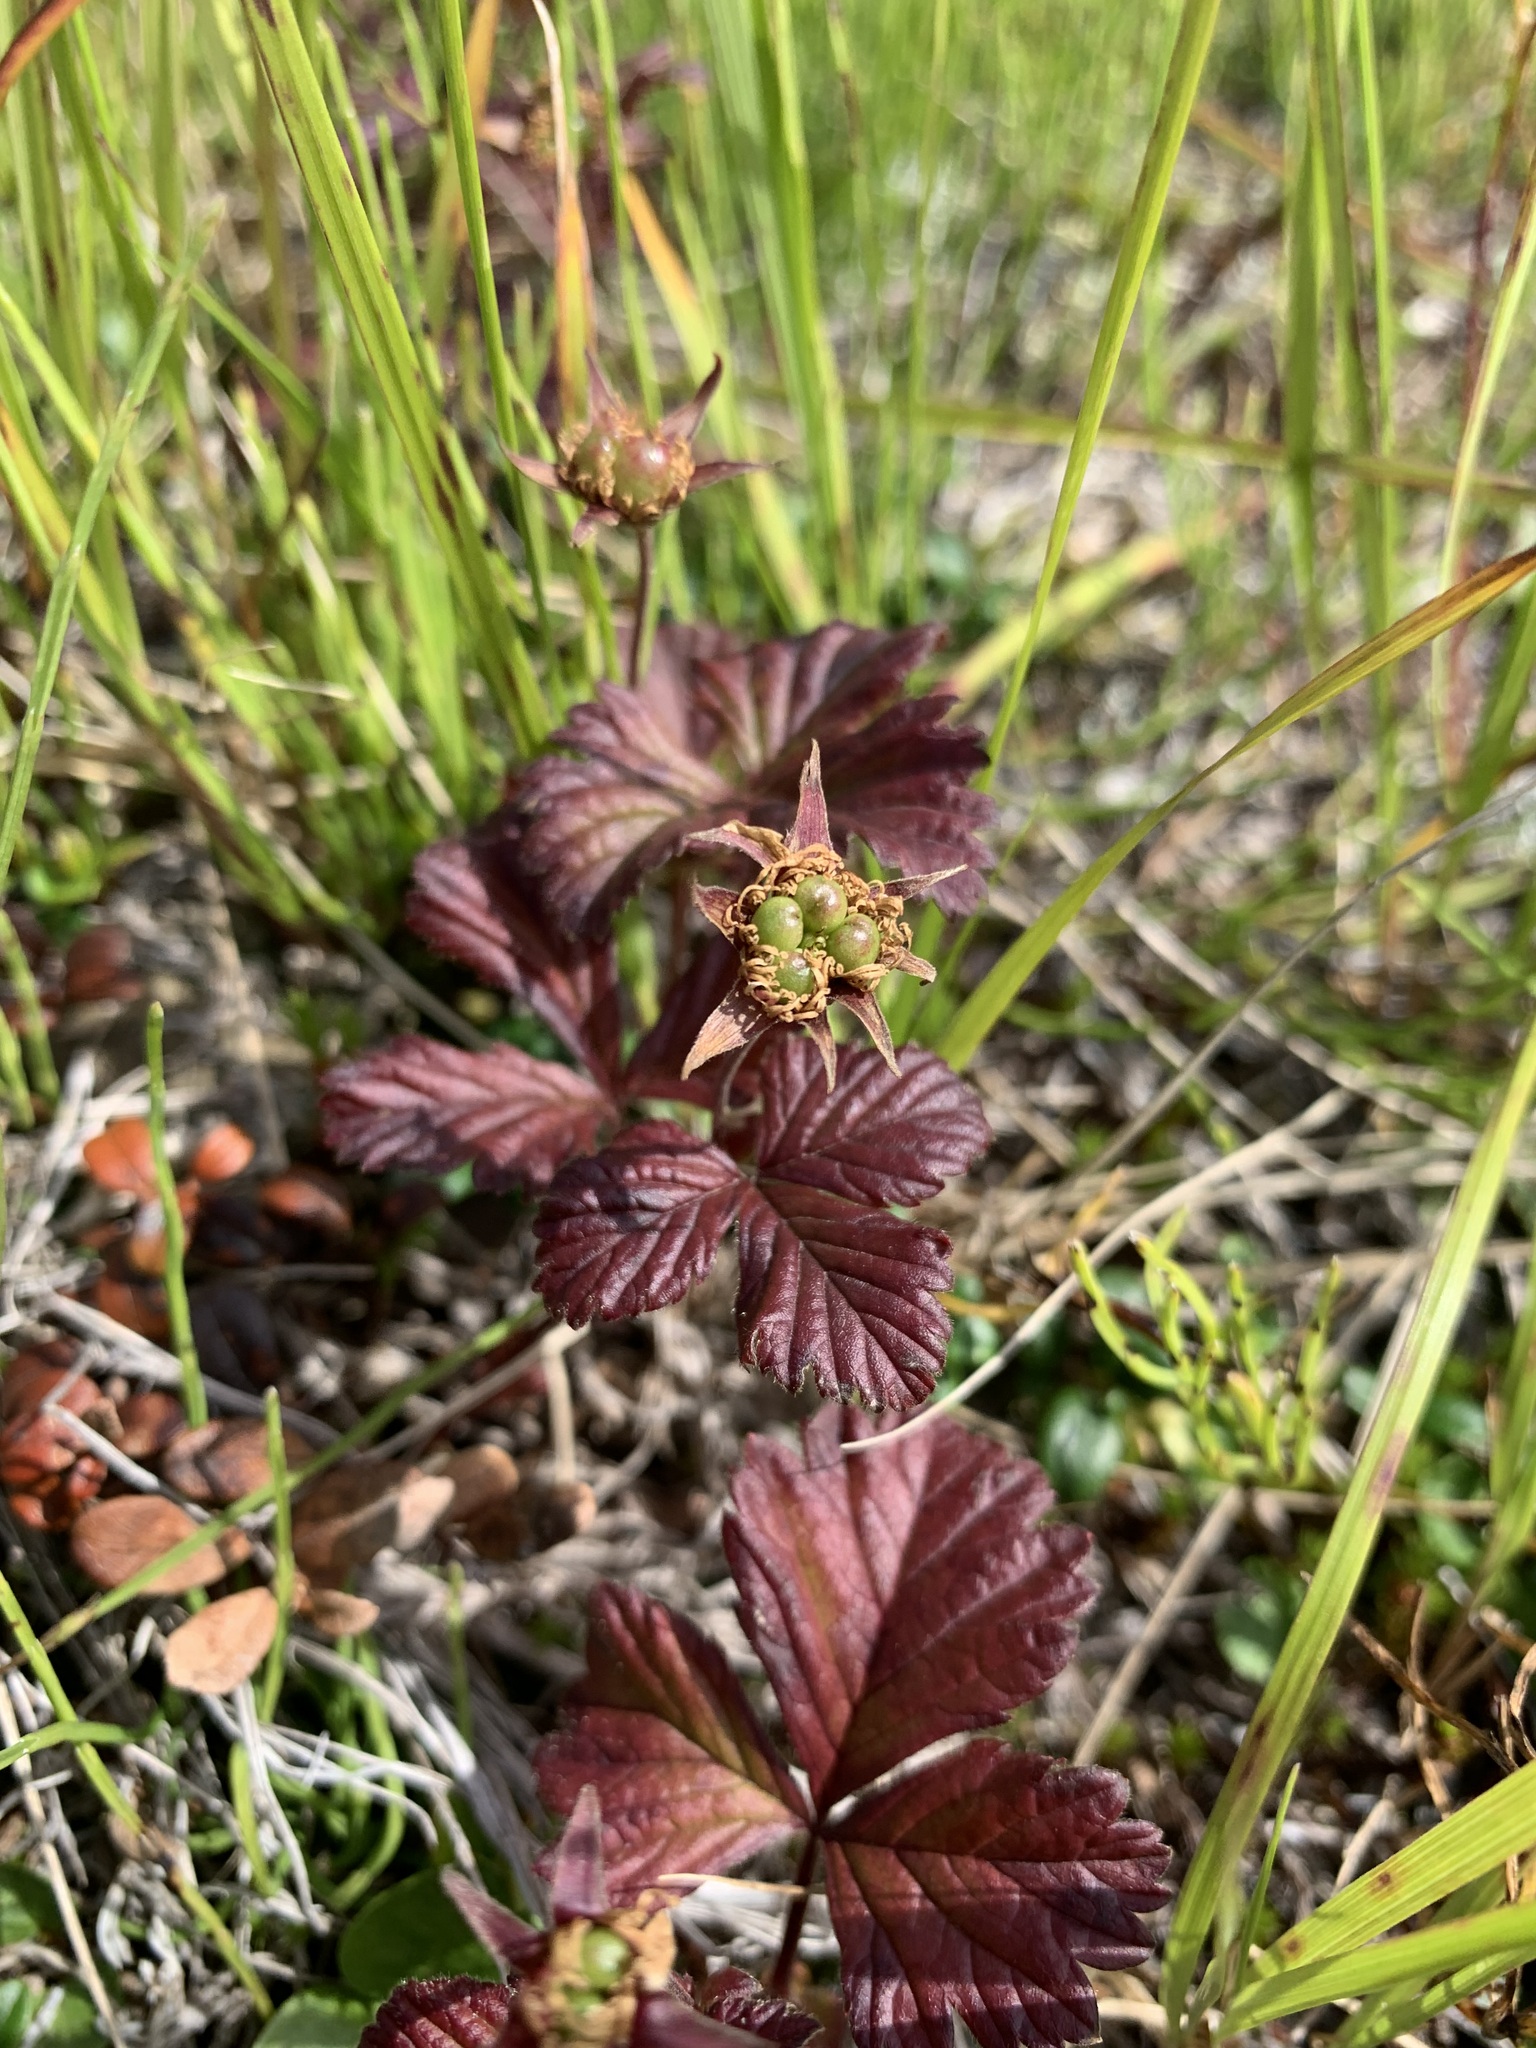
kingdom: Plantae
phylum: Tracheophyta
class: Magnoliopsida
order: Rosales
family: Rosaceae
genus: Rubus
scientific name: Rubus arcticus
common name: Arctic bramble
